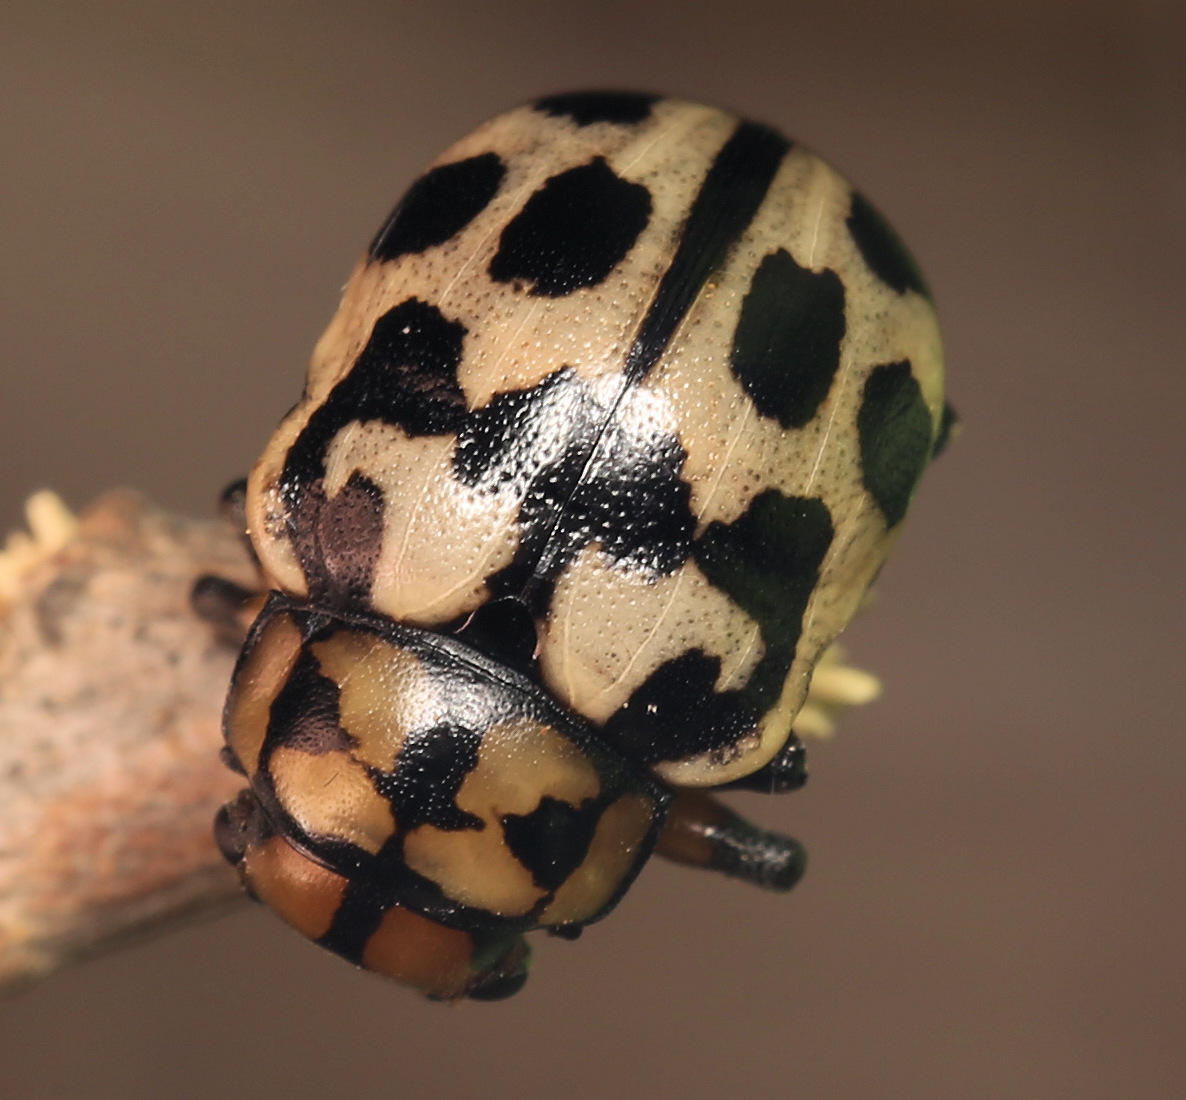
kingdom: Animalia
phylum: Arthropoda
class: Insecta
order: Coleoptera
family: Chrysomelidae
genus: Euryope
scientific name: Euryope
